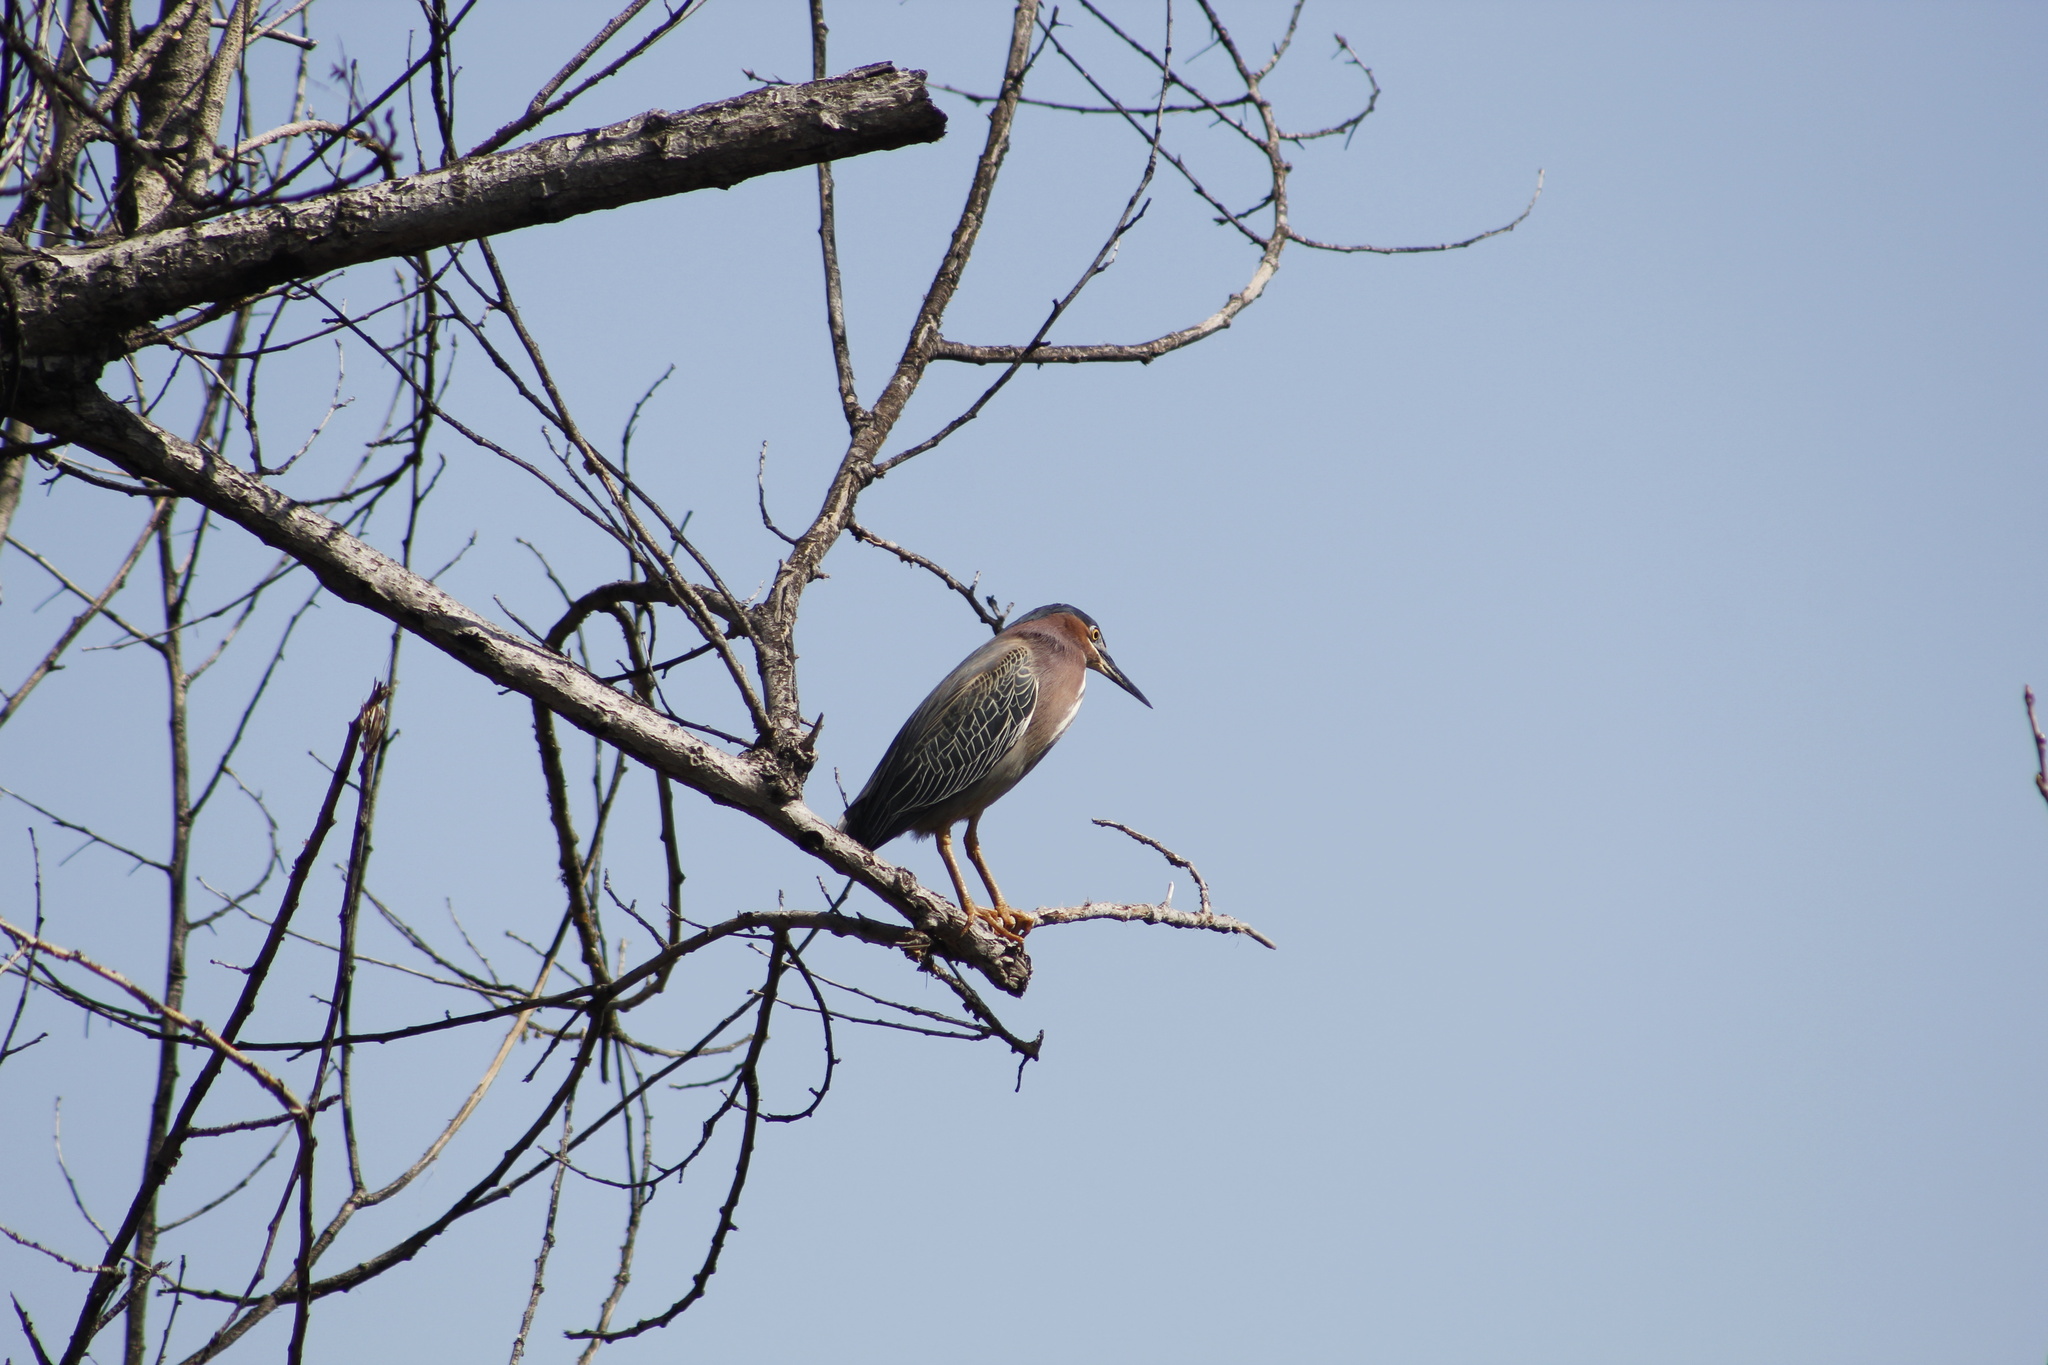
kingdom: Animalia
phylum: Chordata
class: Aves
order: Pelecaniformes
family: Ardeidae
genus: Butorides
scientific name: Butorides virescens
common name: Green heron
